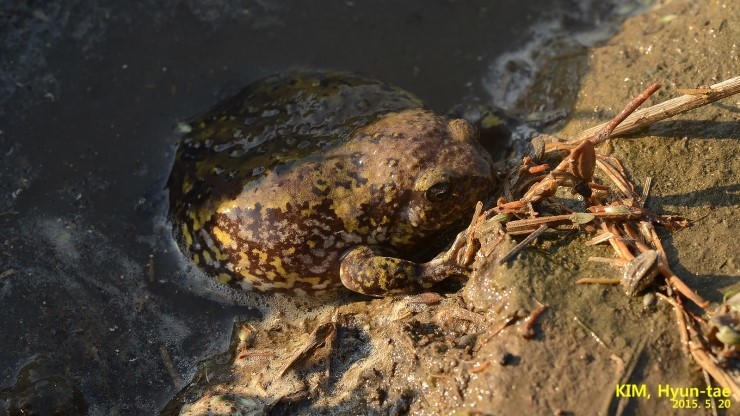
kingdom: Animalia
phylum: Chordata
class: Amphibia
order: Anura
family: Microhylidae
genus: Kaloula
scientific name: Kaloula borealis
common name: Boreal digging frog
